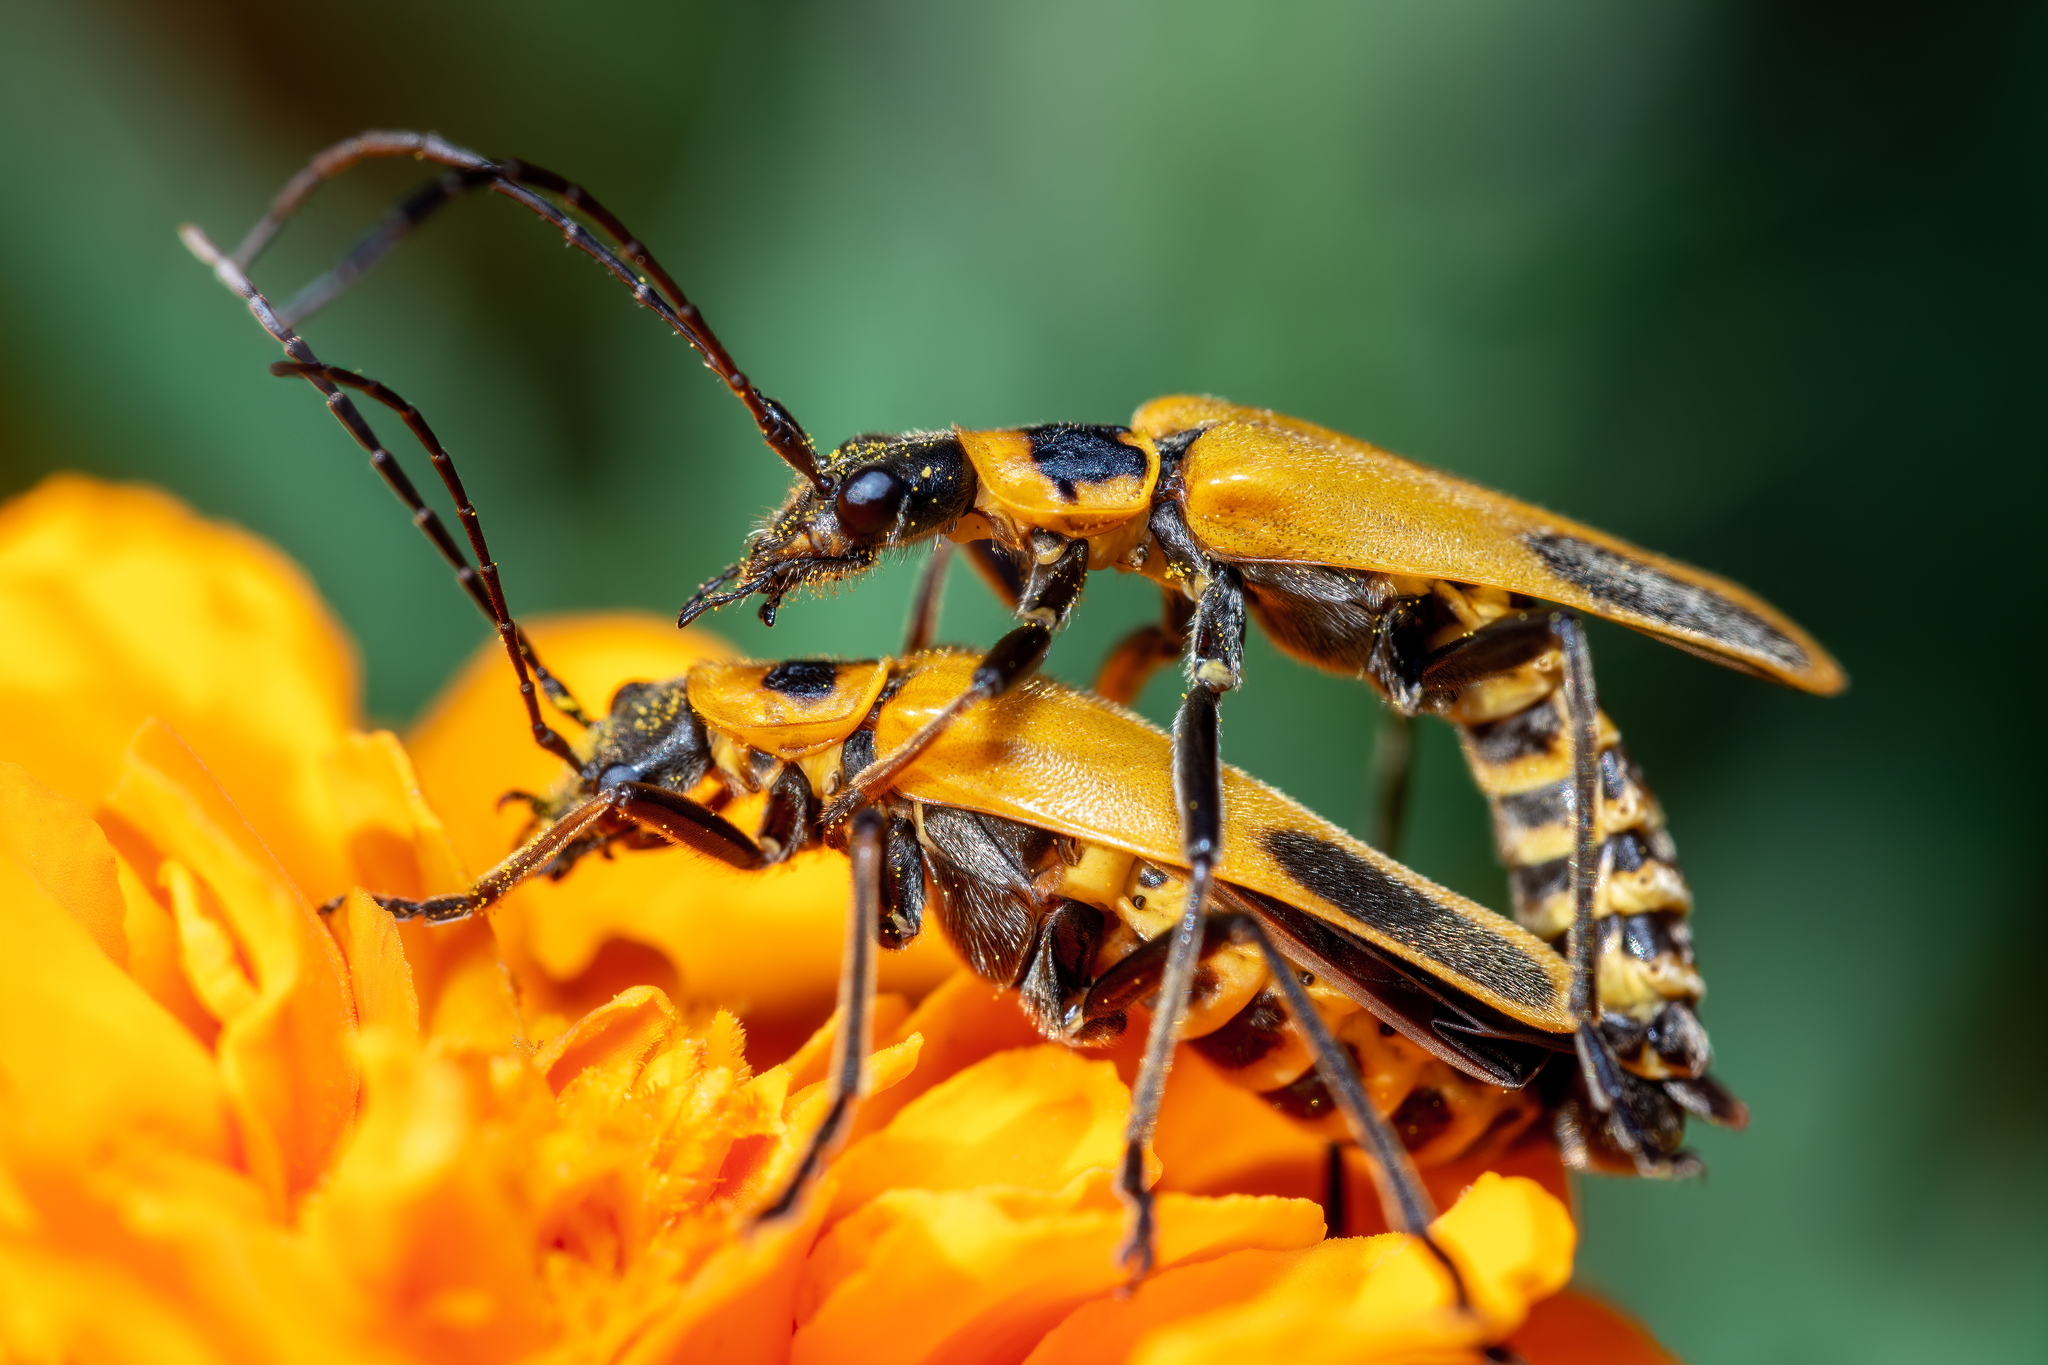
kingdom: Animalia
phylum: Arthropoda
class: Insecta
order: Coleoptera
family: Cantharidae
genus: Chauliognathus
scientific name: Chauliognathus pensylvanicus
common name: Goldenrod soldier beetle
